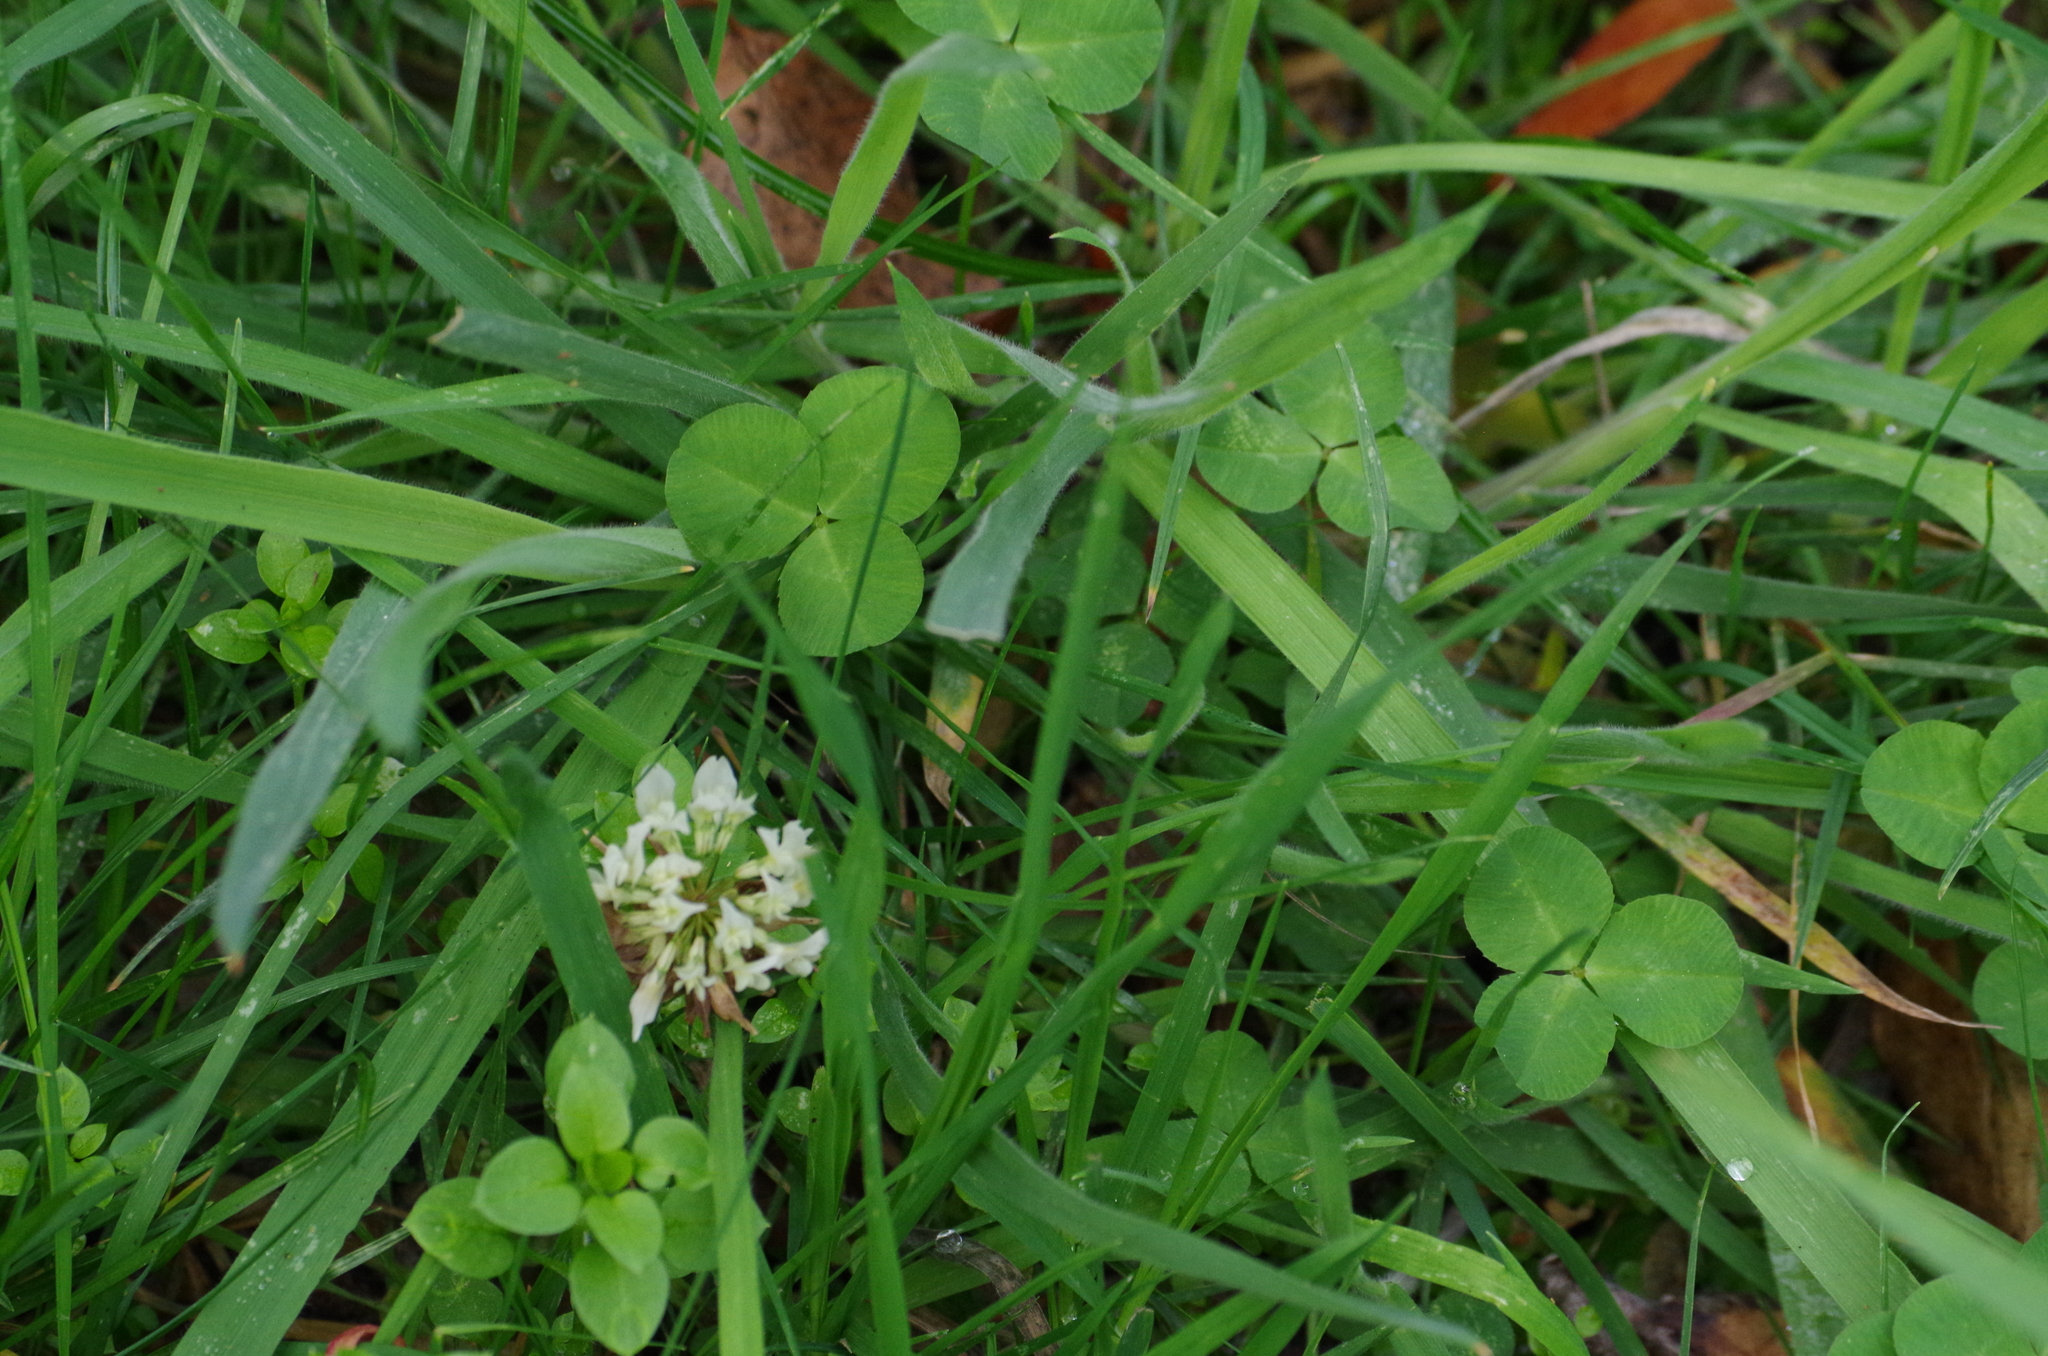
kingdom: Plantae
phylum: Tracheophyta
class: Magnoliopsida
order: Fabales
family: Fabaceae
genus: Trifolium
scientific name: Trifolium repens
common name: White clover
